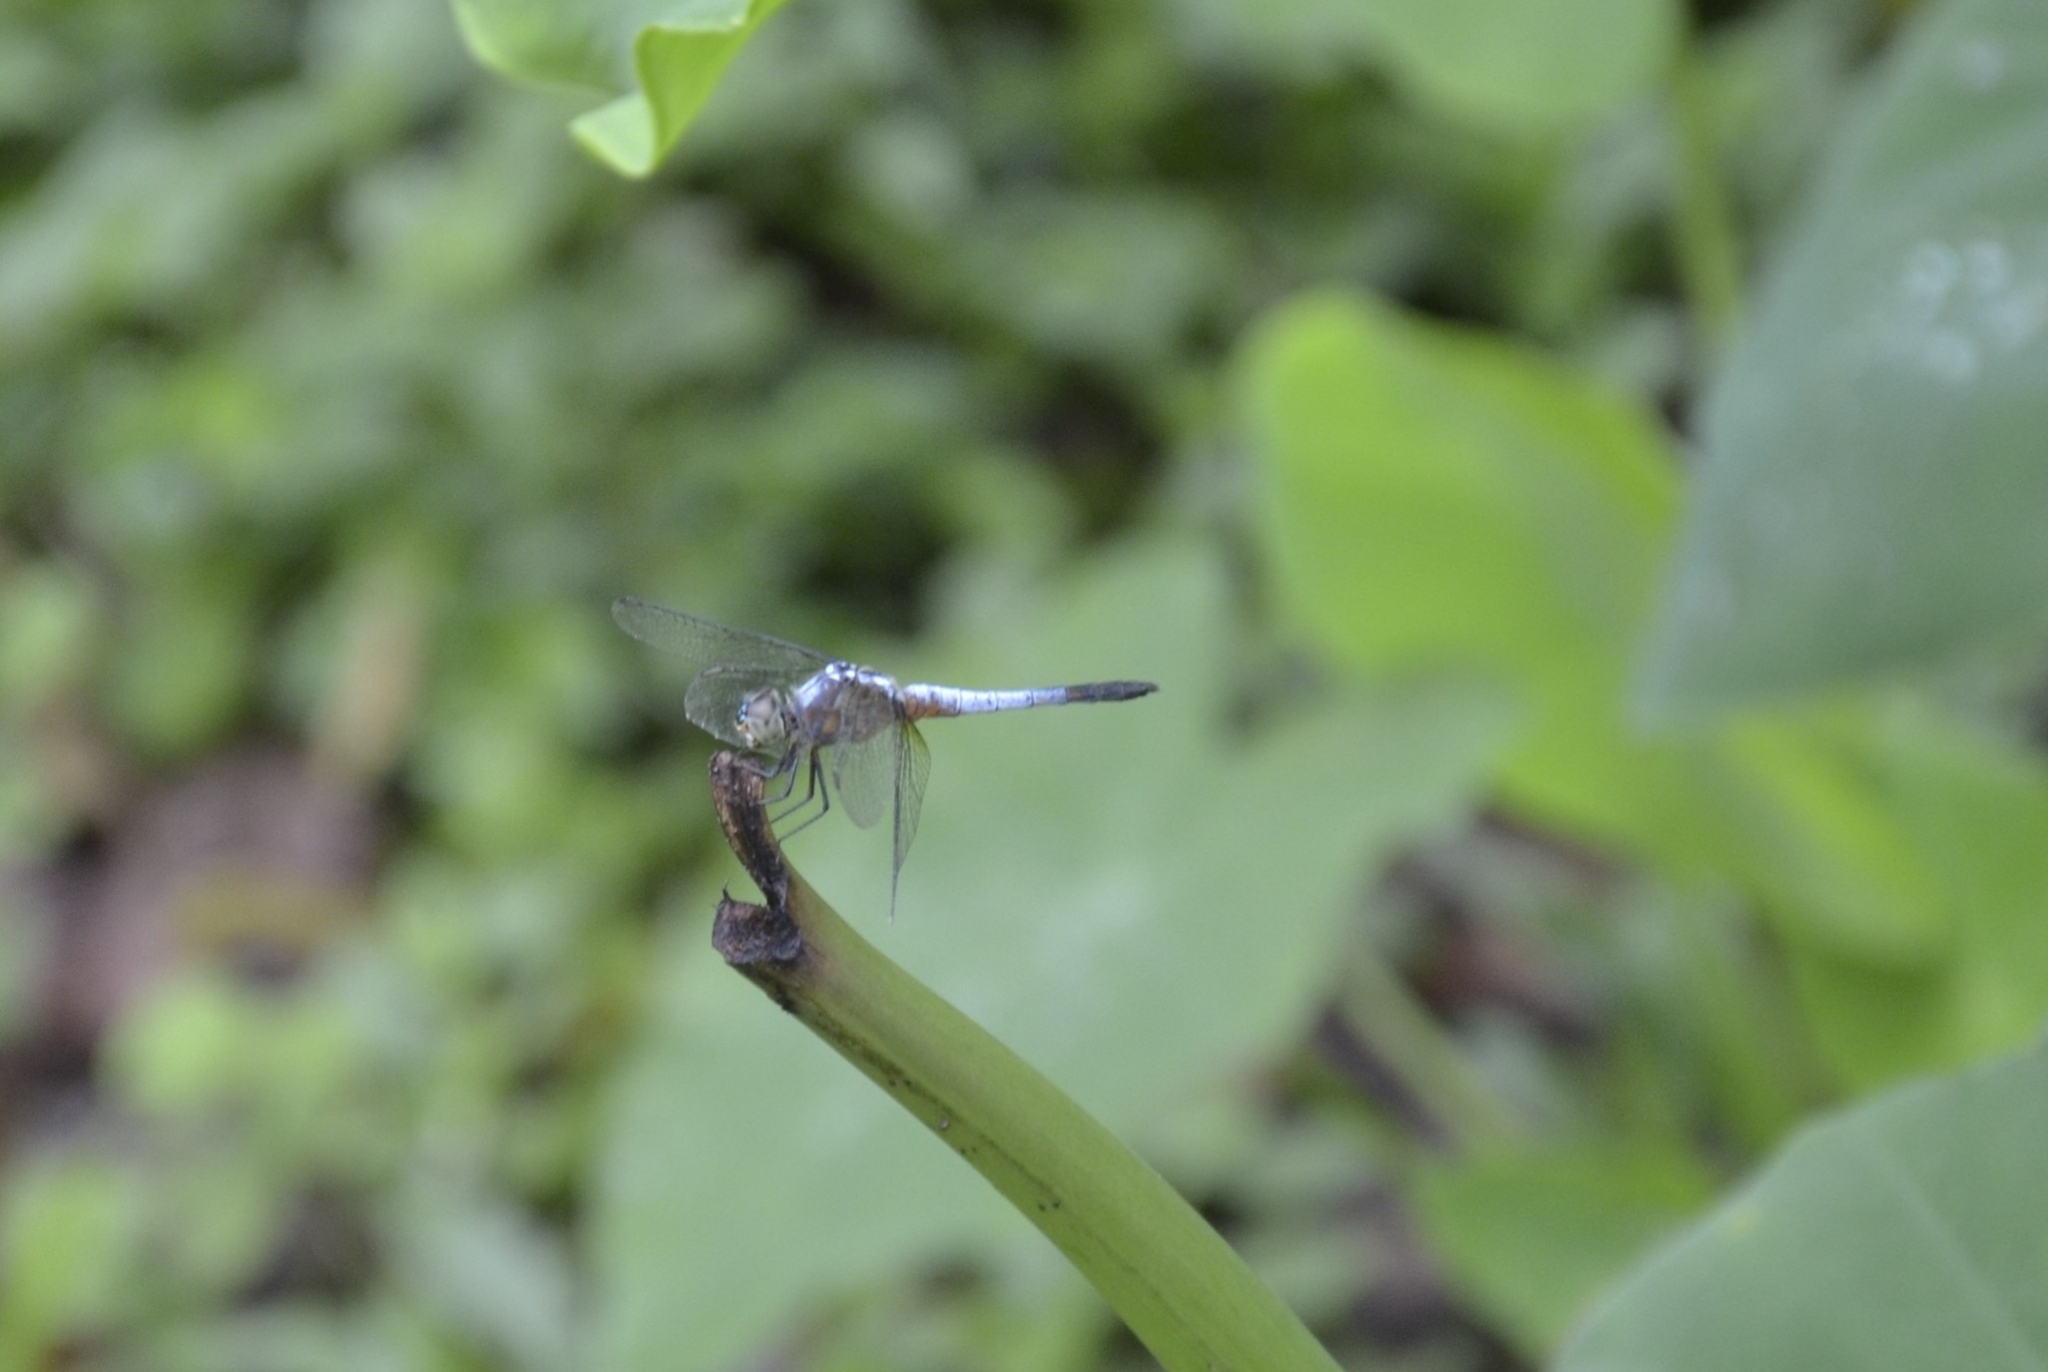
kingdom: Animalia
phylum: Arthropoda
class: Insecta
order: Odonata
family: Libellulidae
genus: Brachydiplax
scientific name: Brachydiplax chalybea
